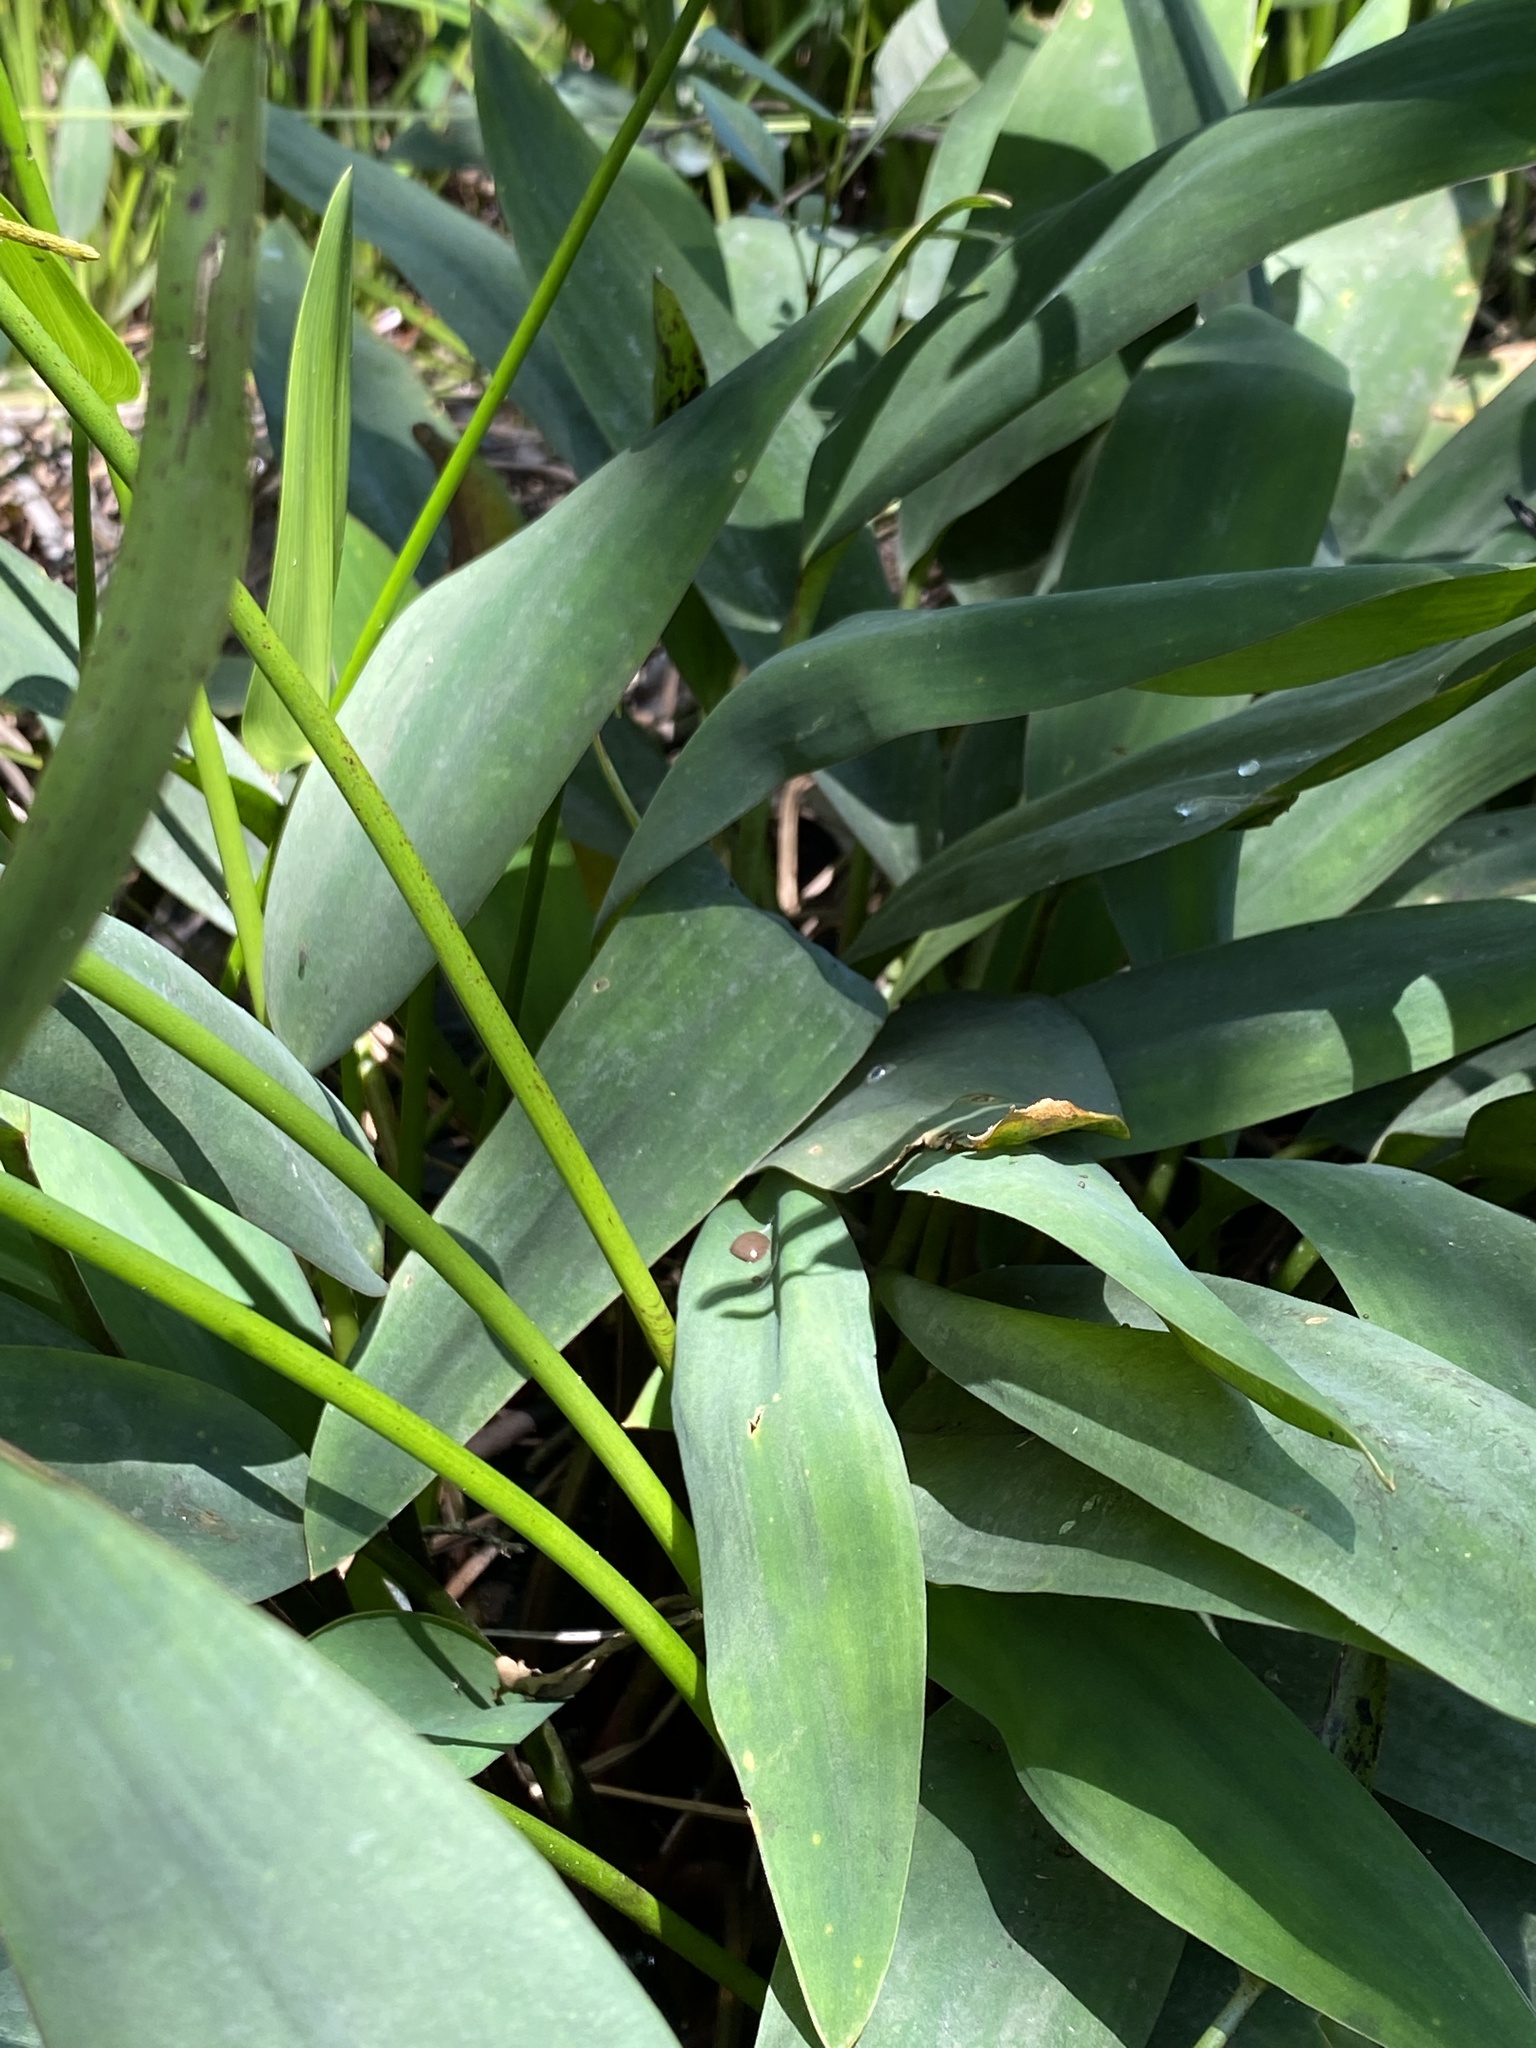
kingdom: Plantae
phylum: Tracheophyta
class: Liliopsida
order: Alismatales
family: Araceae
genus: Orontium
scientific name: Orontium aquaticum
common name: Golden-club
